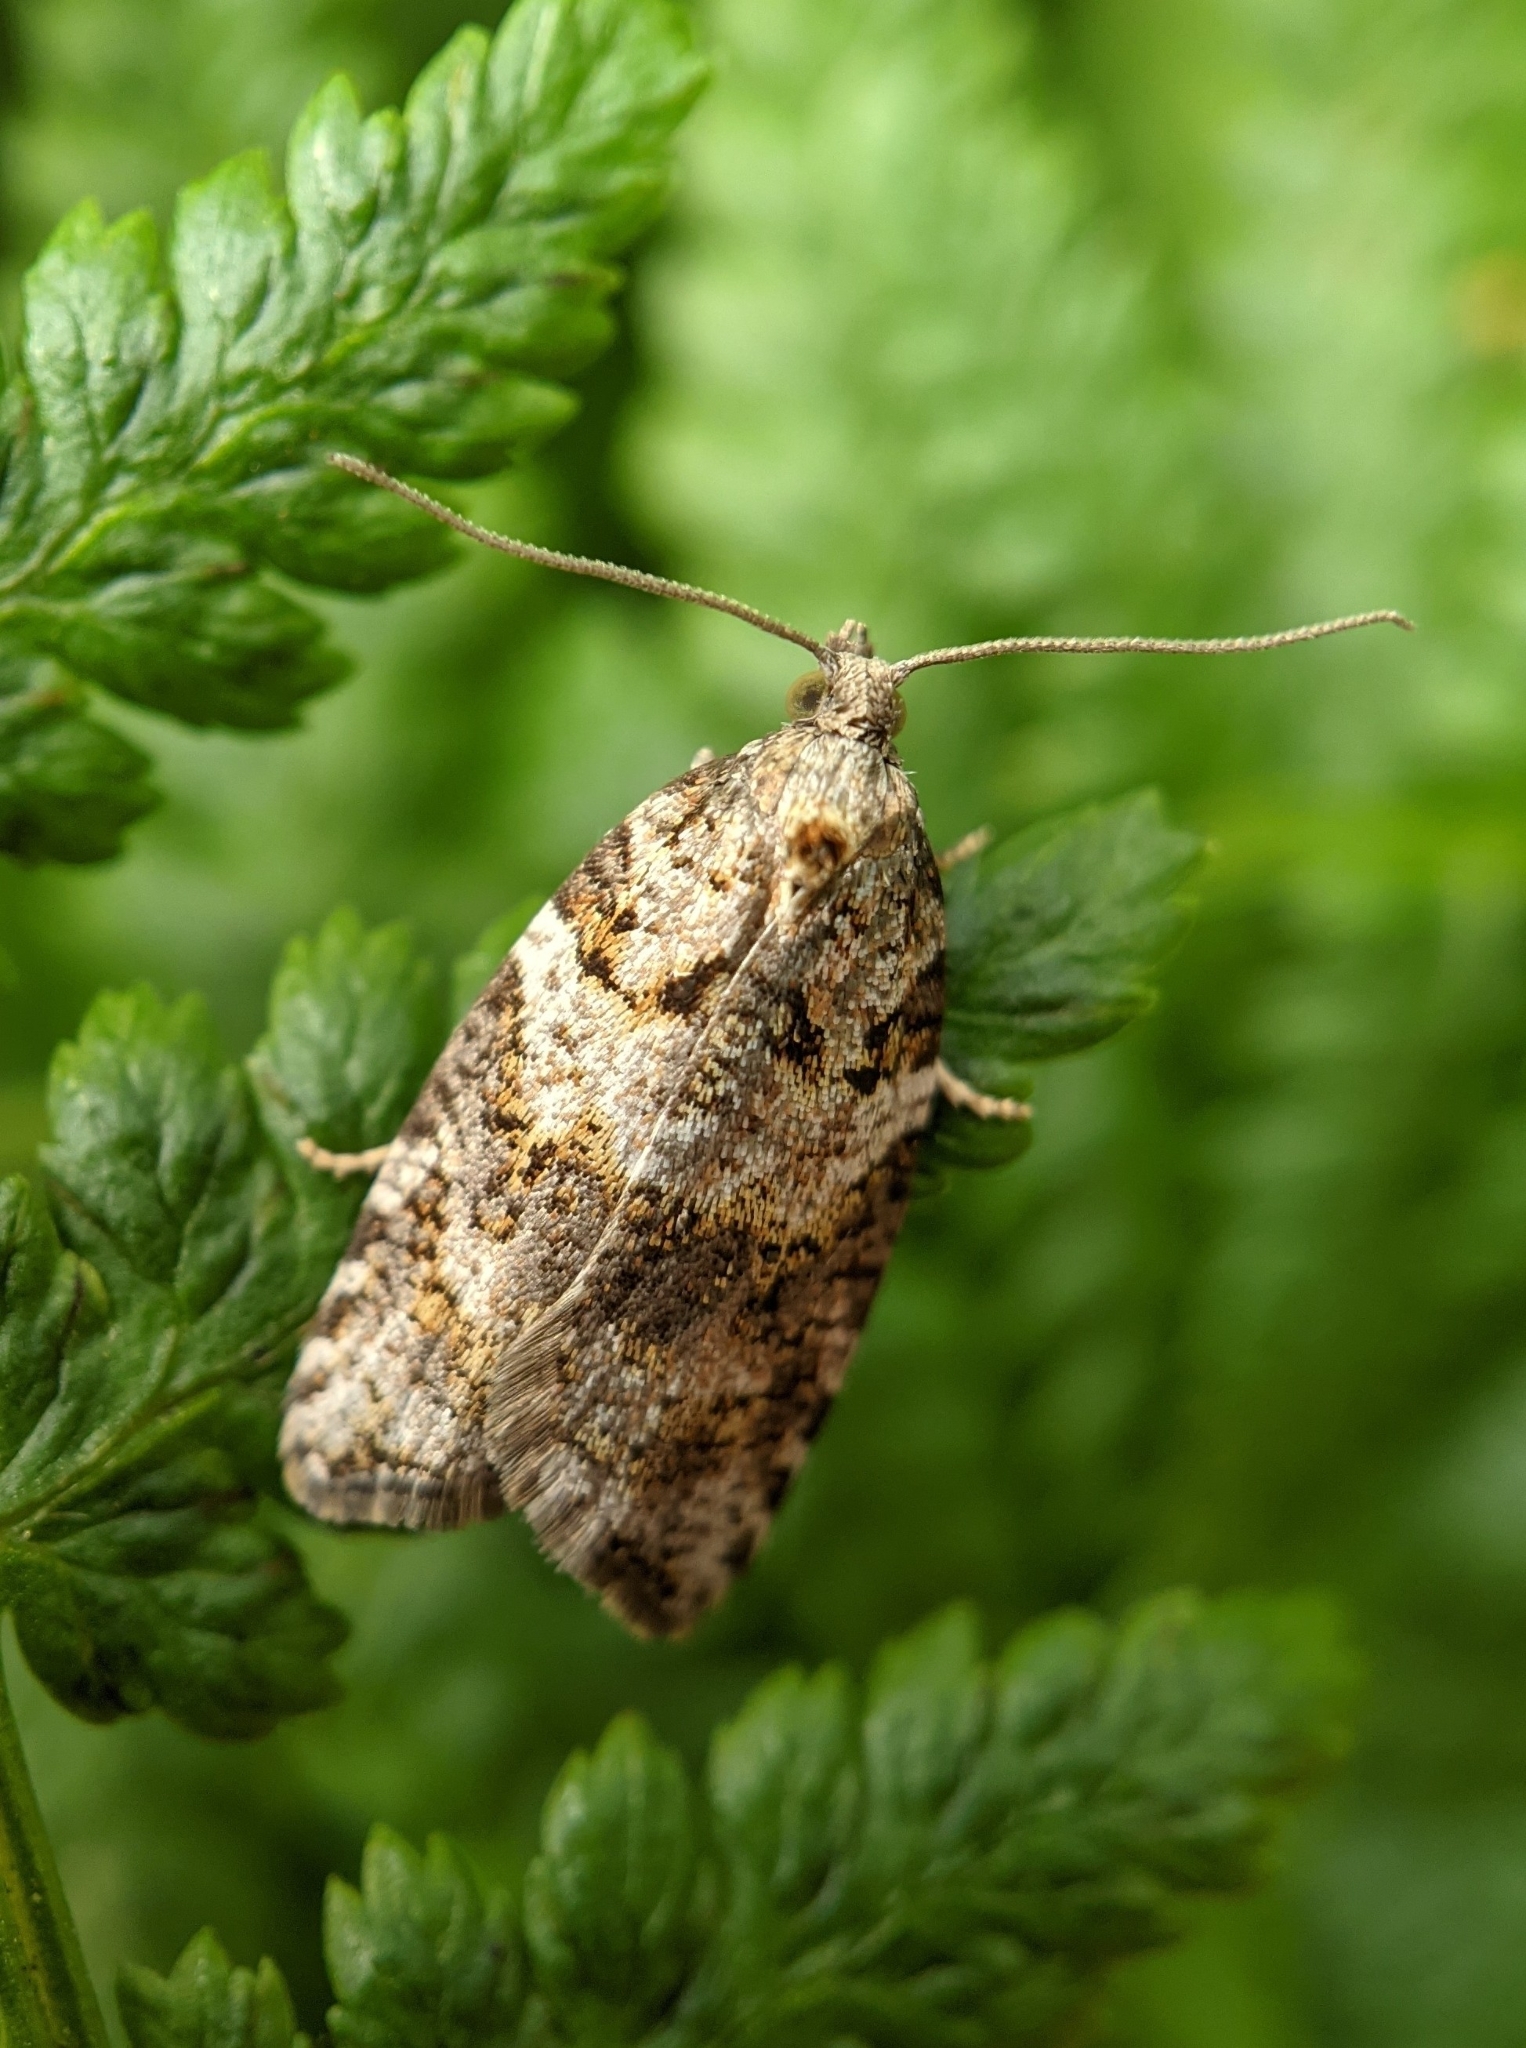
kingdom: Animalia
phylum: Arthropoda
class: Insecta
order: Lepidoptera
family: Tortricidae
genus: Acleris
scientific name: Acleris gloveranus
